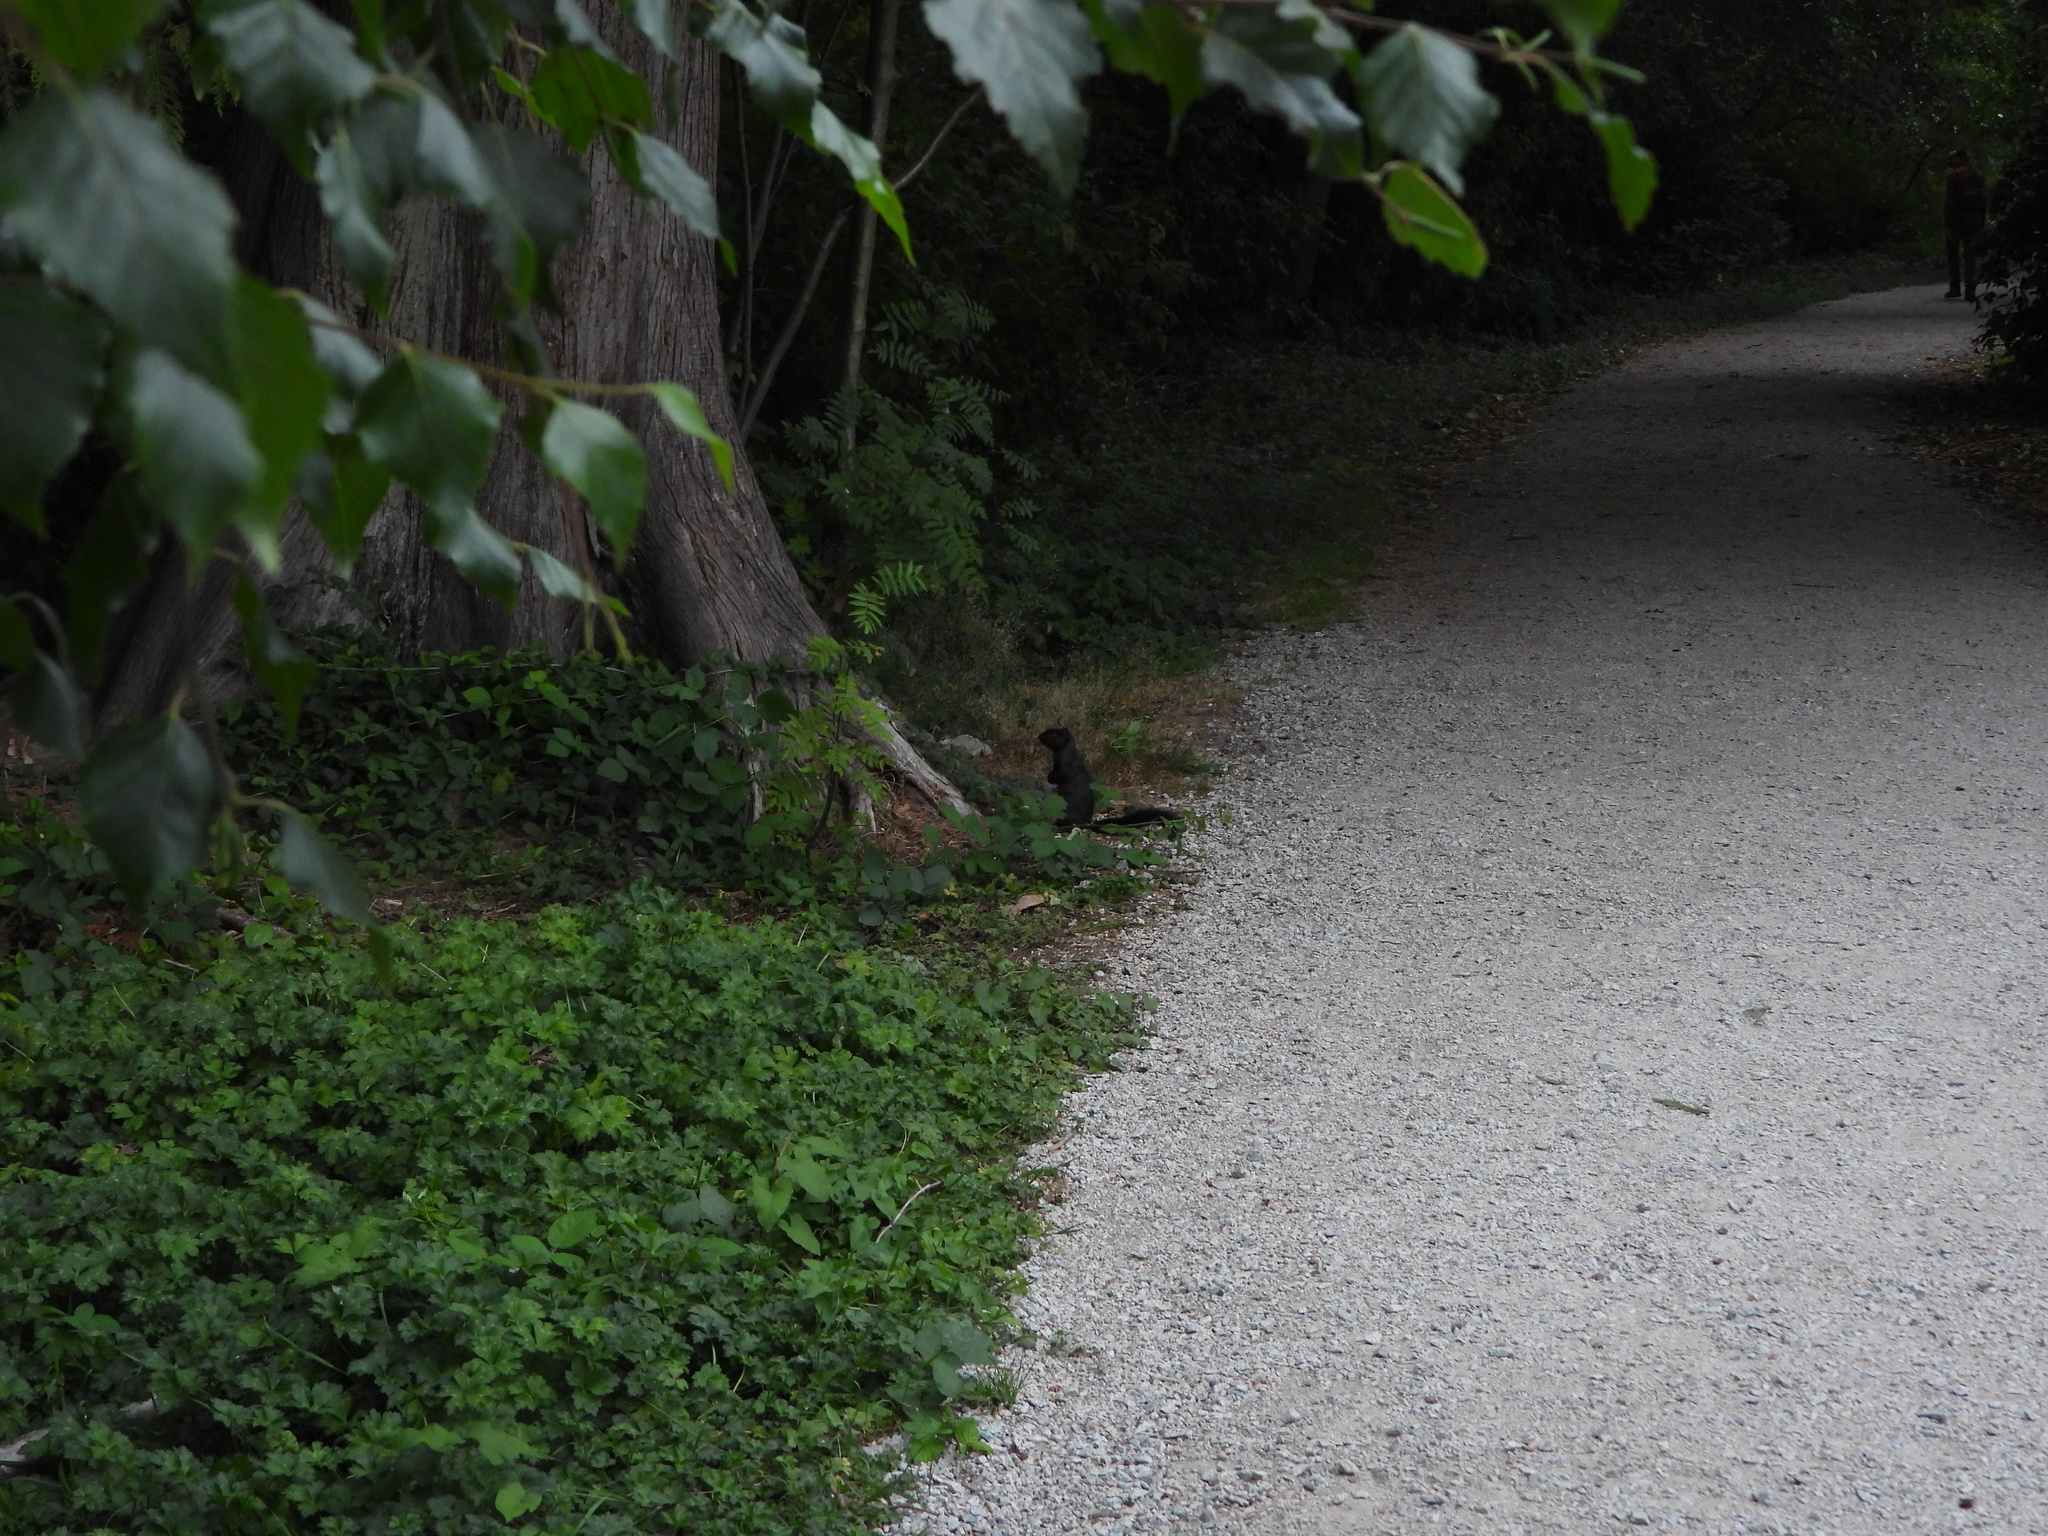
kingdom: Animalia
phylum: Chordata
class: Mammalia
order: Rodentia
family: Sciuridae
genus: Sciurus
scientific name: Sciurus carolinensis
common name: Eastern gray squirrel
